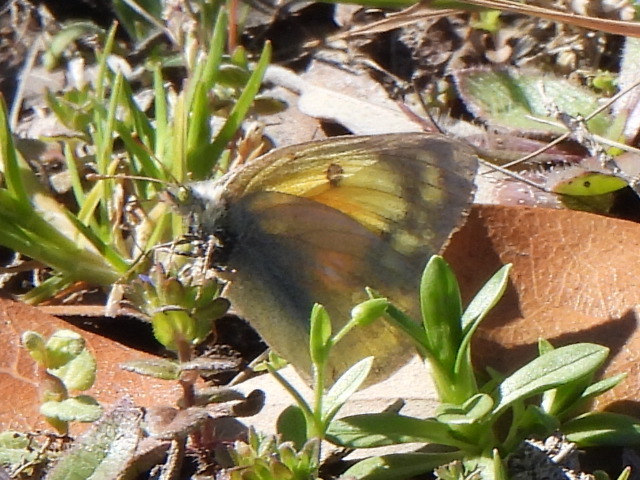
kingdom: Animalia
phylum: Arthropoda
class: Insecta
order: Lepidoptera
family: Pieridae
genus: Colias
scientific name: Colias eurytheme
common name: Alfalfa butterfly
